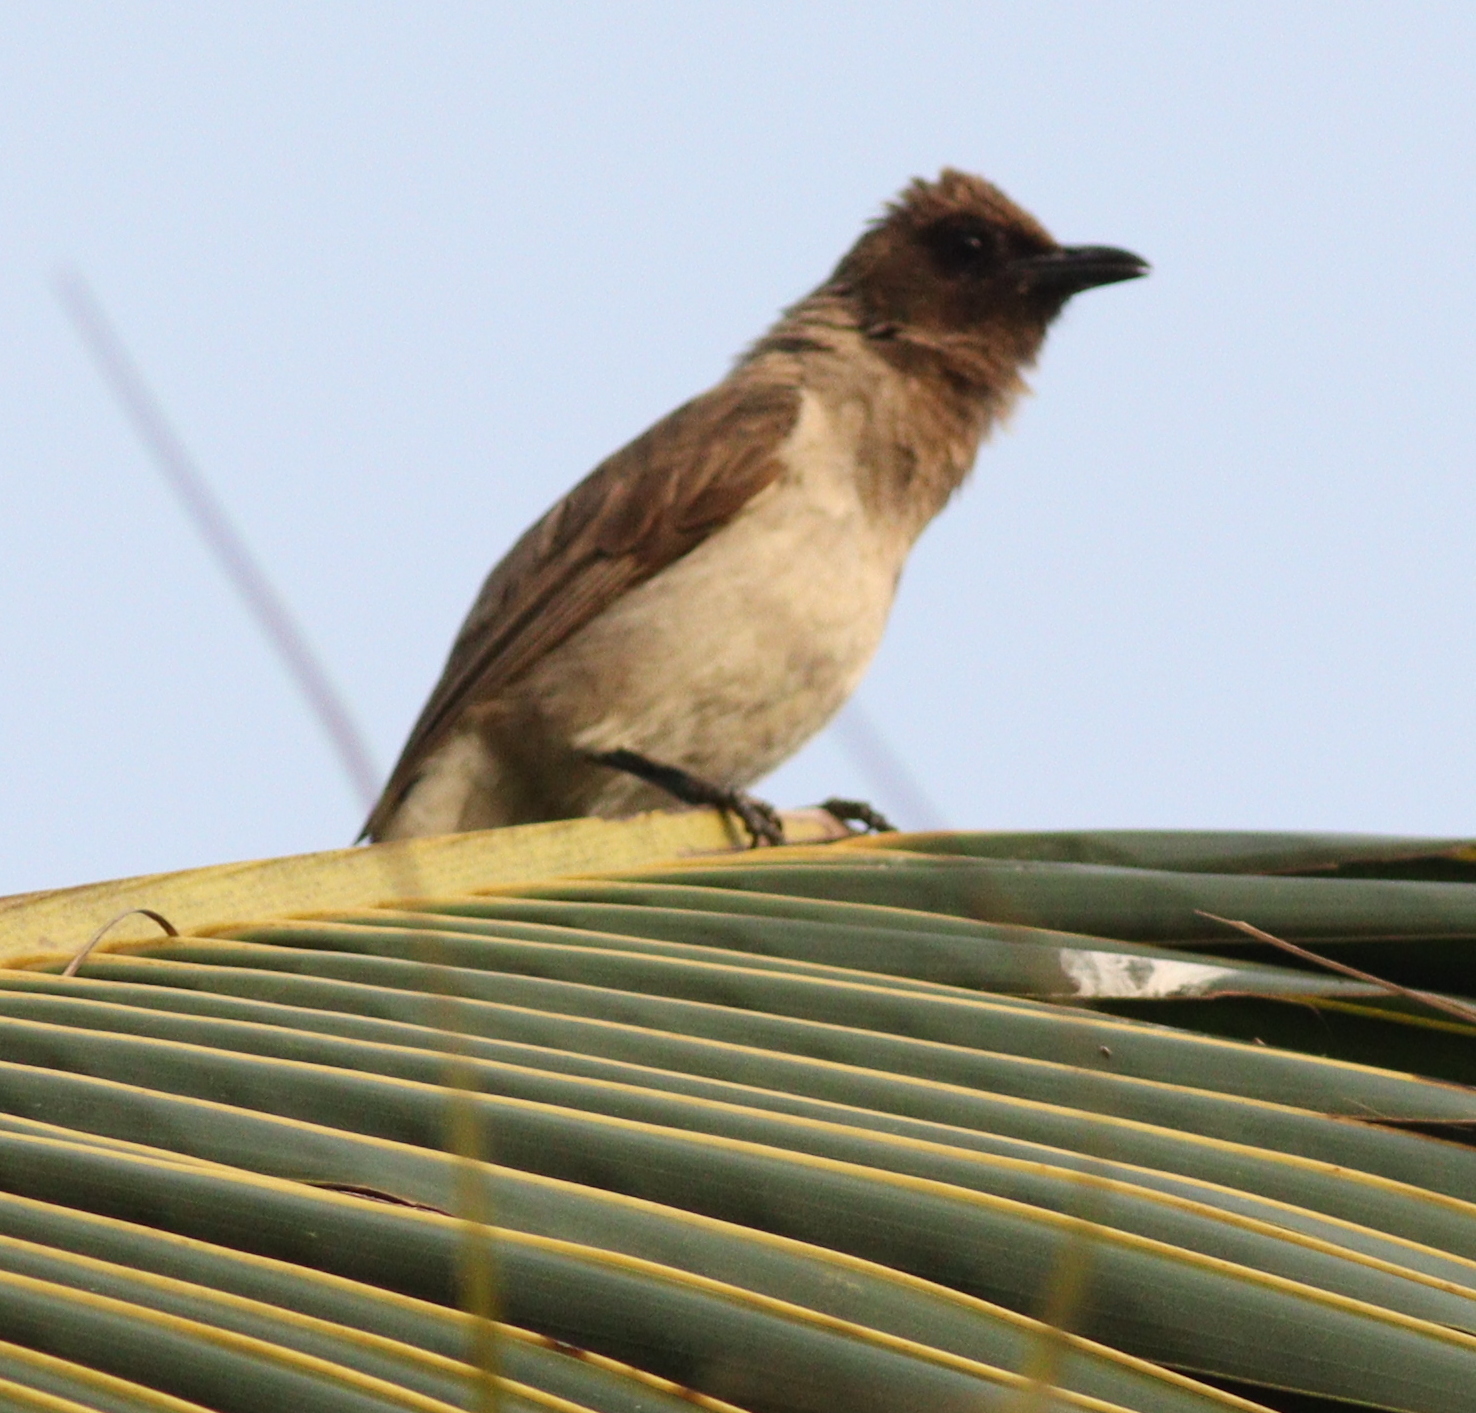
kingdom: Animalia
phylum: Chordata
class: Aves
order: Passeriformes
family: Pycnonotidae
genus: Pycnonotus
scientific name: Pycnonotus barbatus
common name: Common bulbul
